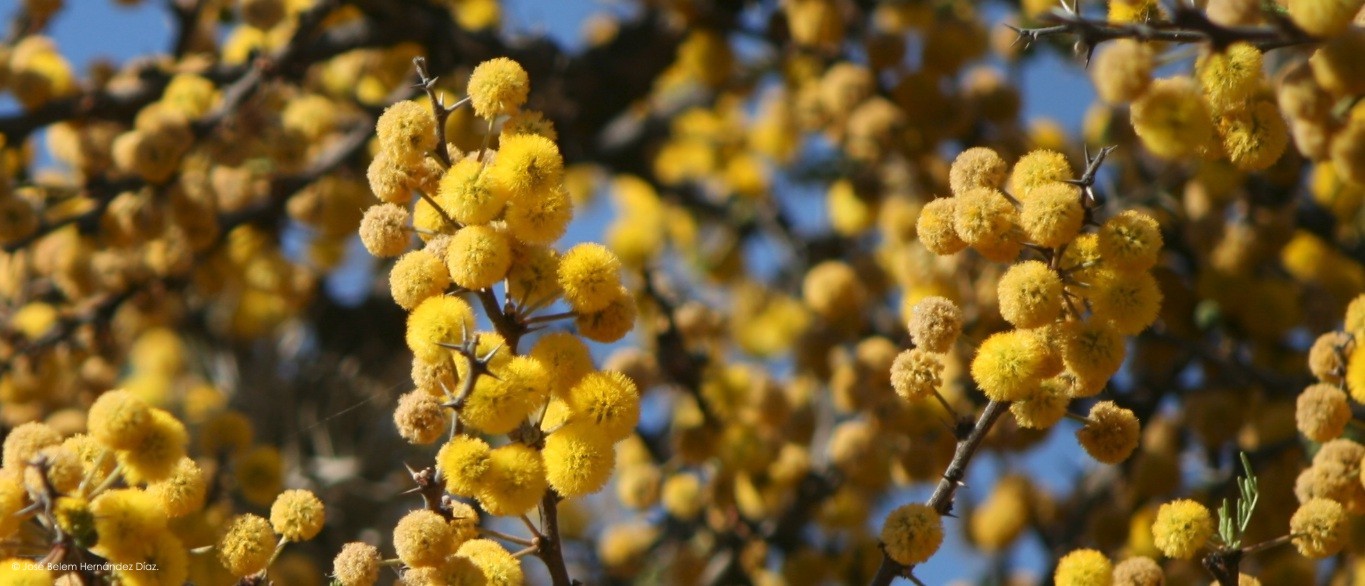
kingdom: Plantae
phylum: Tracheophyta
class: Magnoliopsida
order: Fabales
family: Fabaceae
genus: Vachellia
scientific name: Vachellia farnesiana
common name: Sweet acacia
